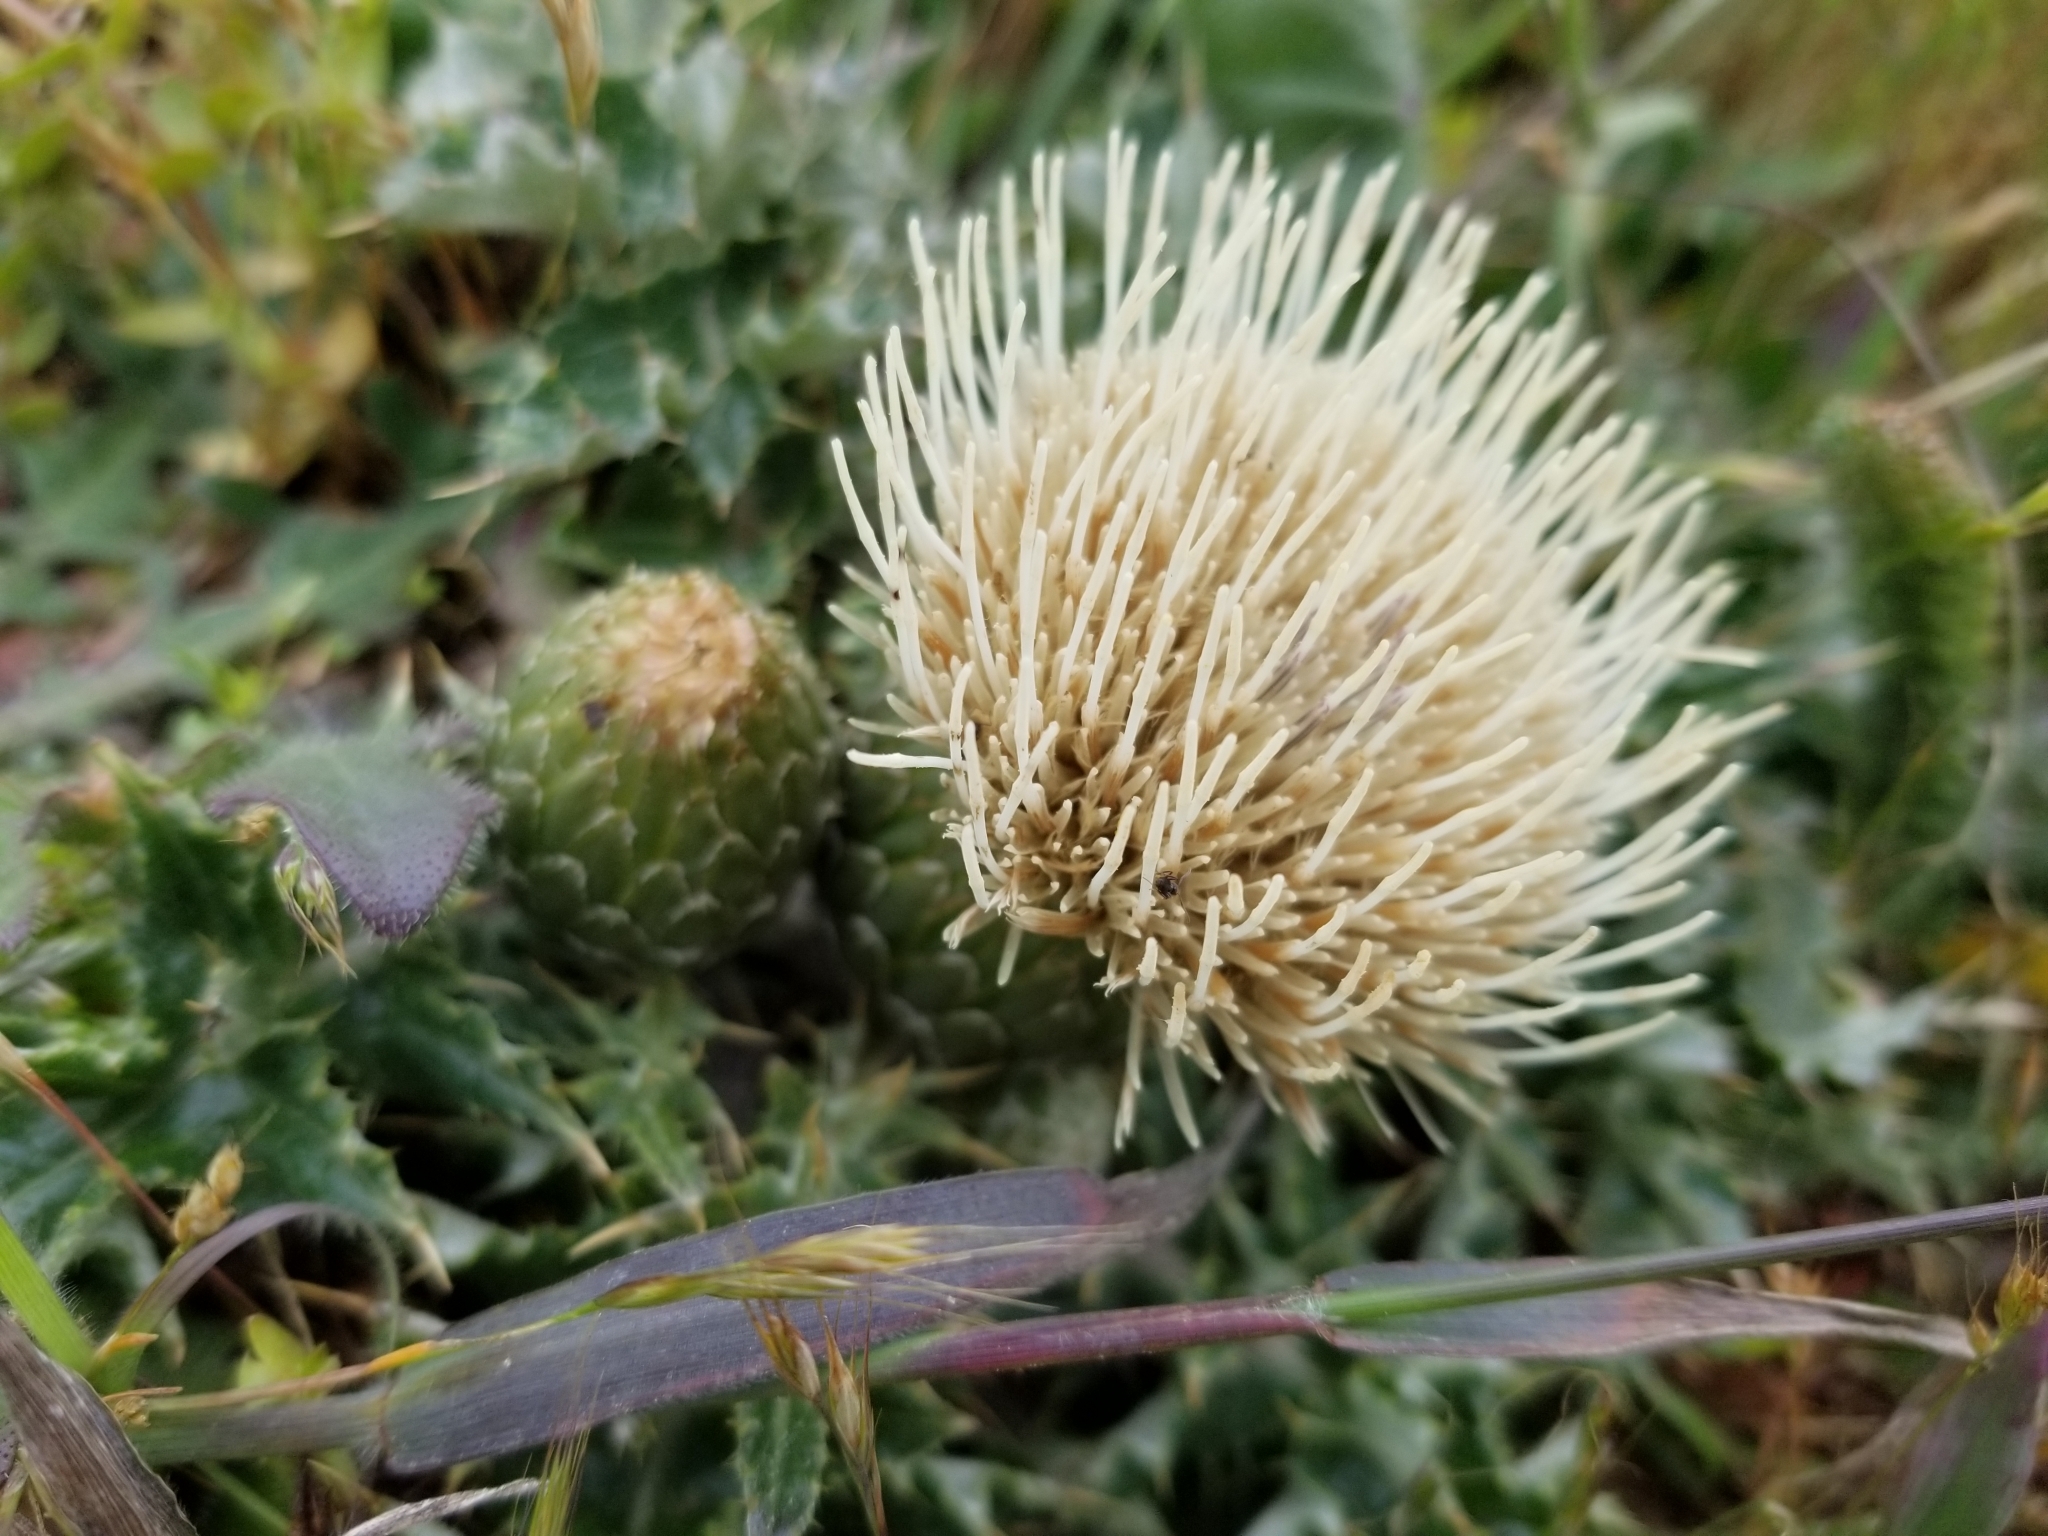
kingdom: Plantae
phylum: Tracheophyta
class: Magnoliopsida
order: Asterales
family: Asteraceae
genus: Cirsium
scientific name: Cirsium quercetorum
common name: Alameda county thistle
